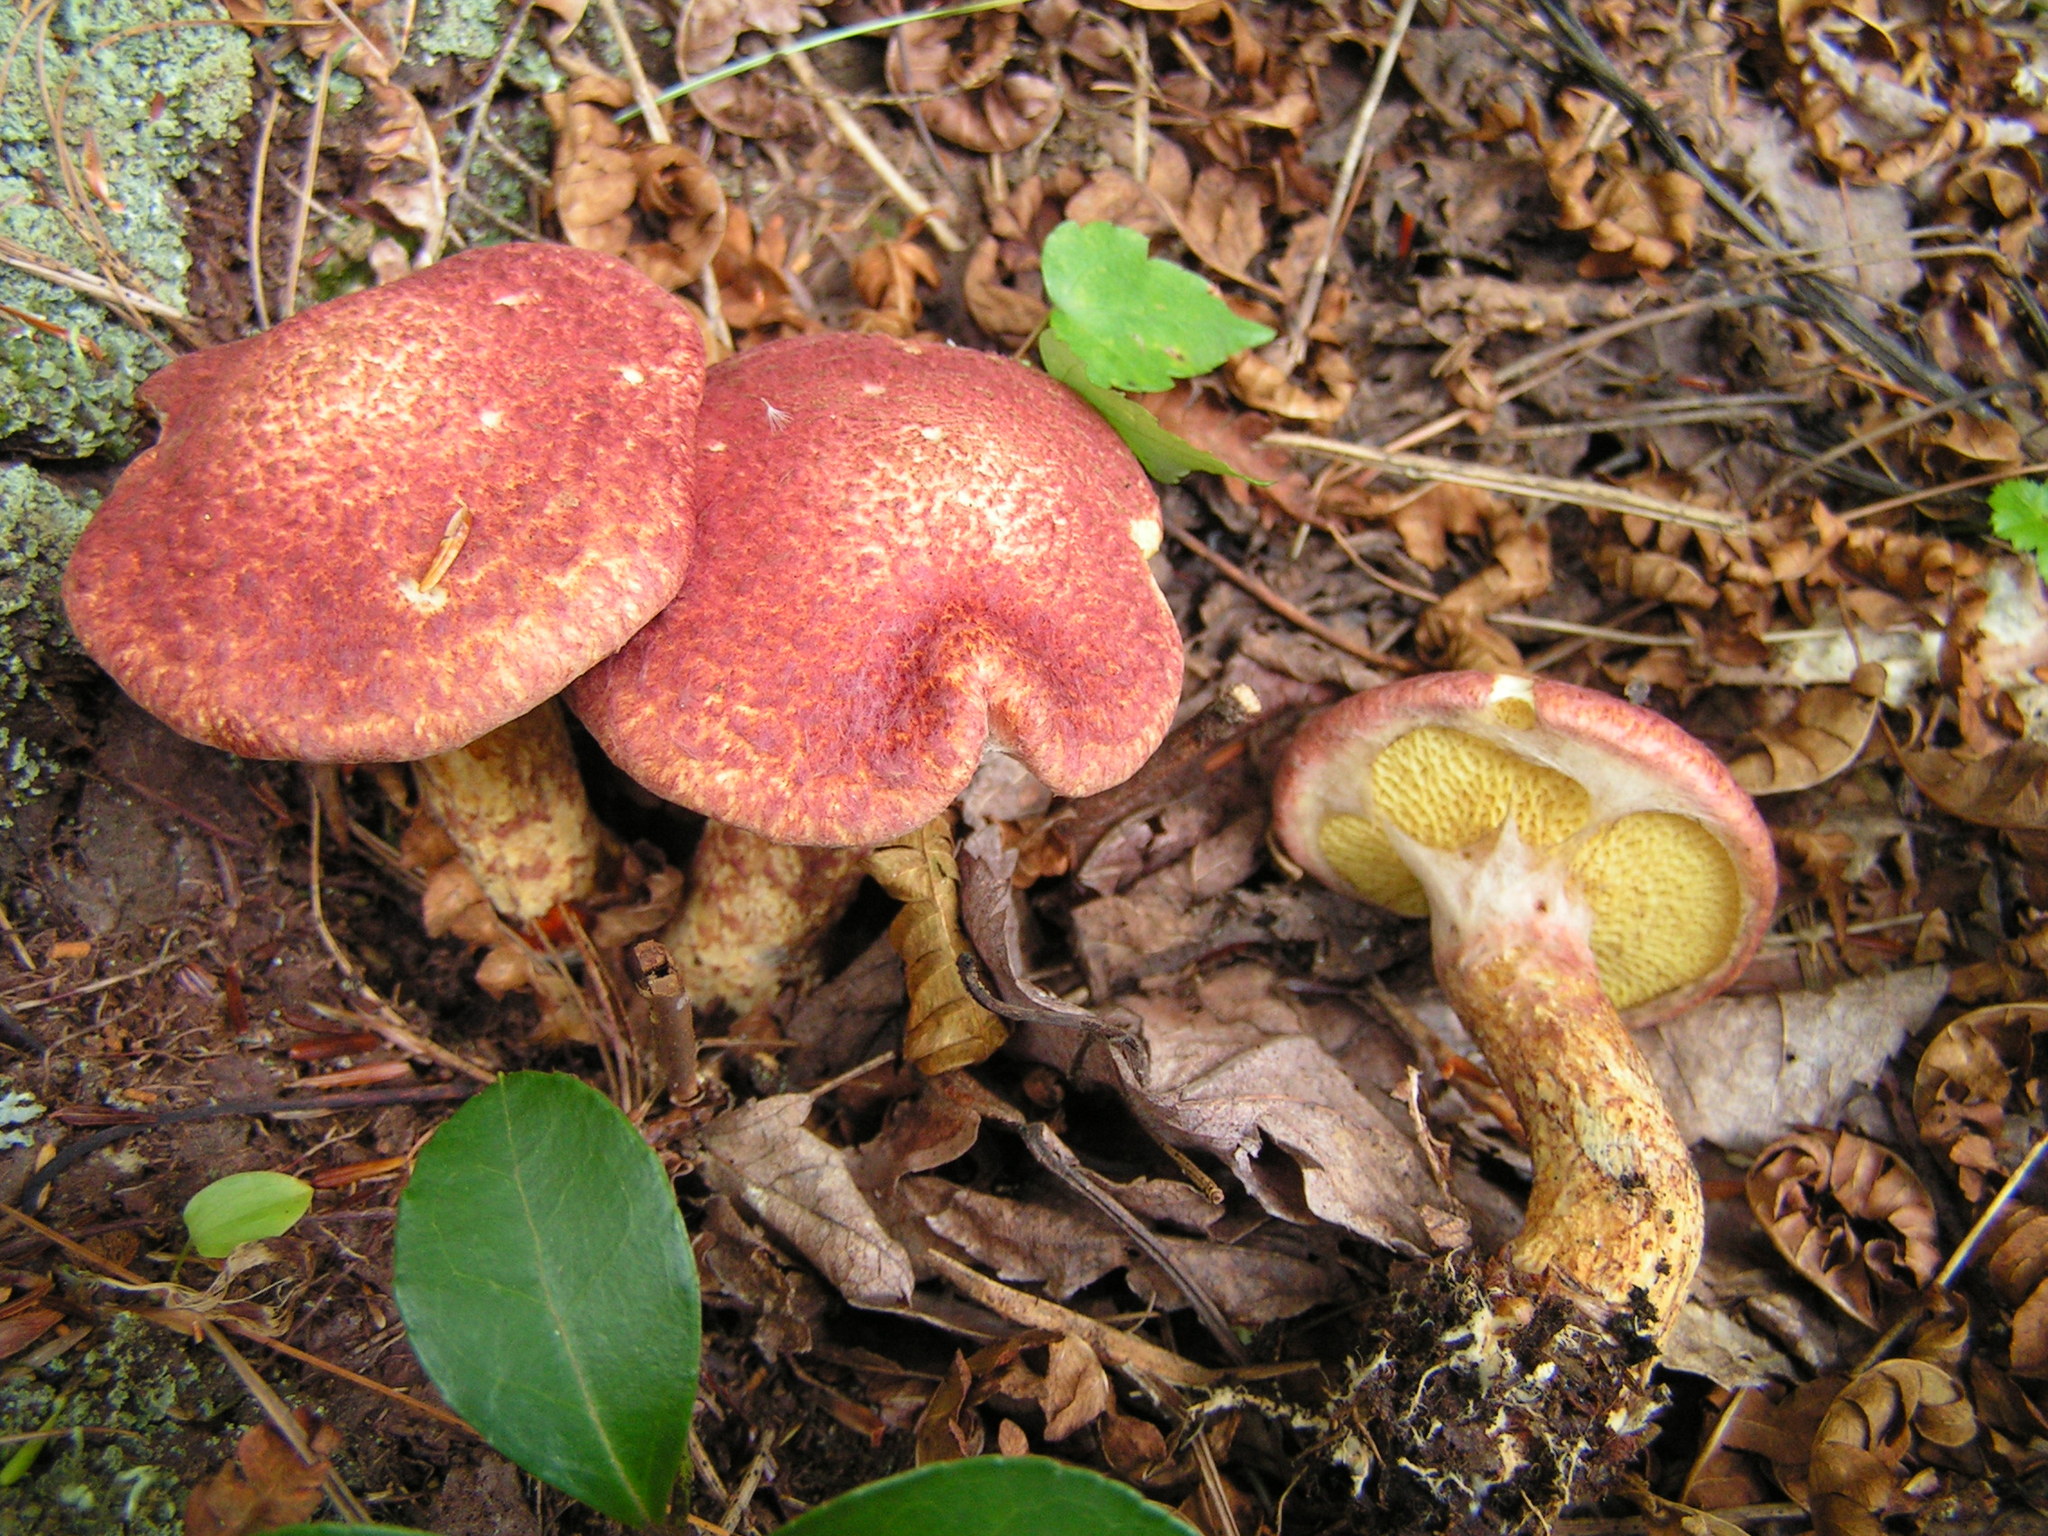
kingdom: Fungi
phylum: Basidiomycota
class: Agaricomycetes
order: Boletales
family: Suillaceae
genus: Suillus
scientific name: Suillus spraguei
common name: Painted suillus
